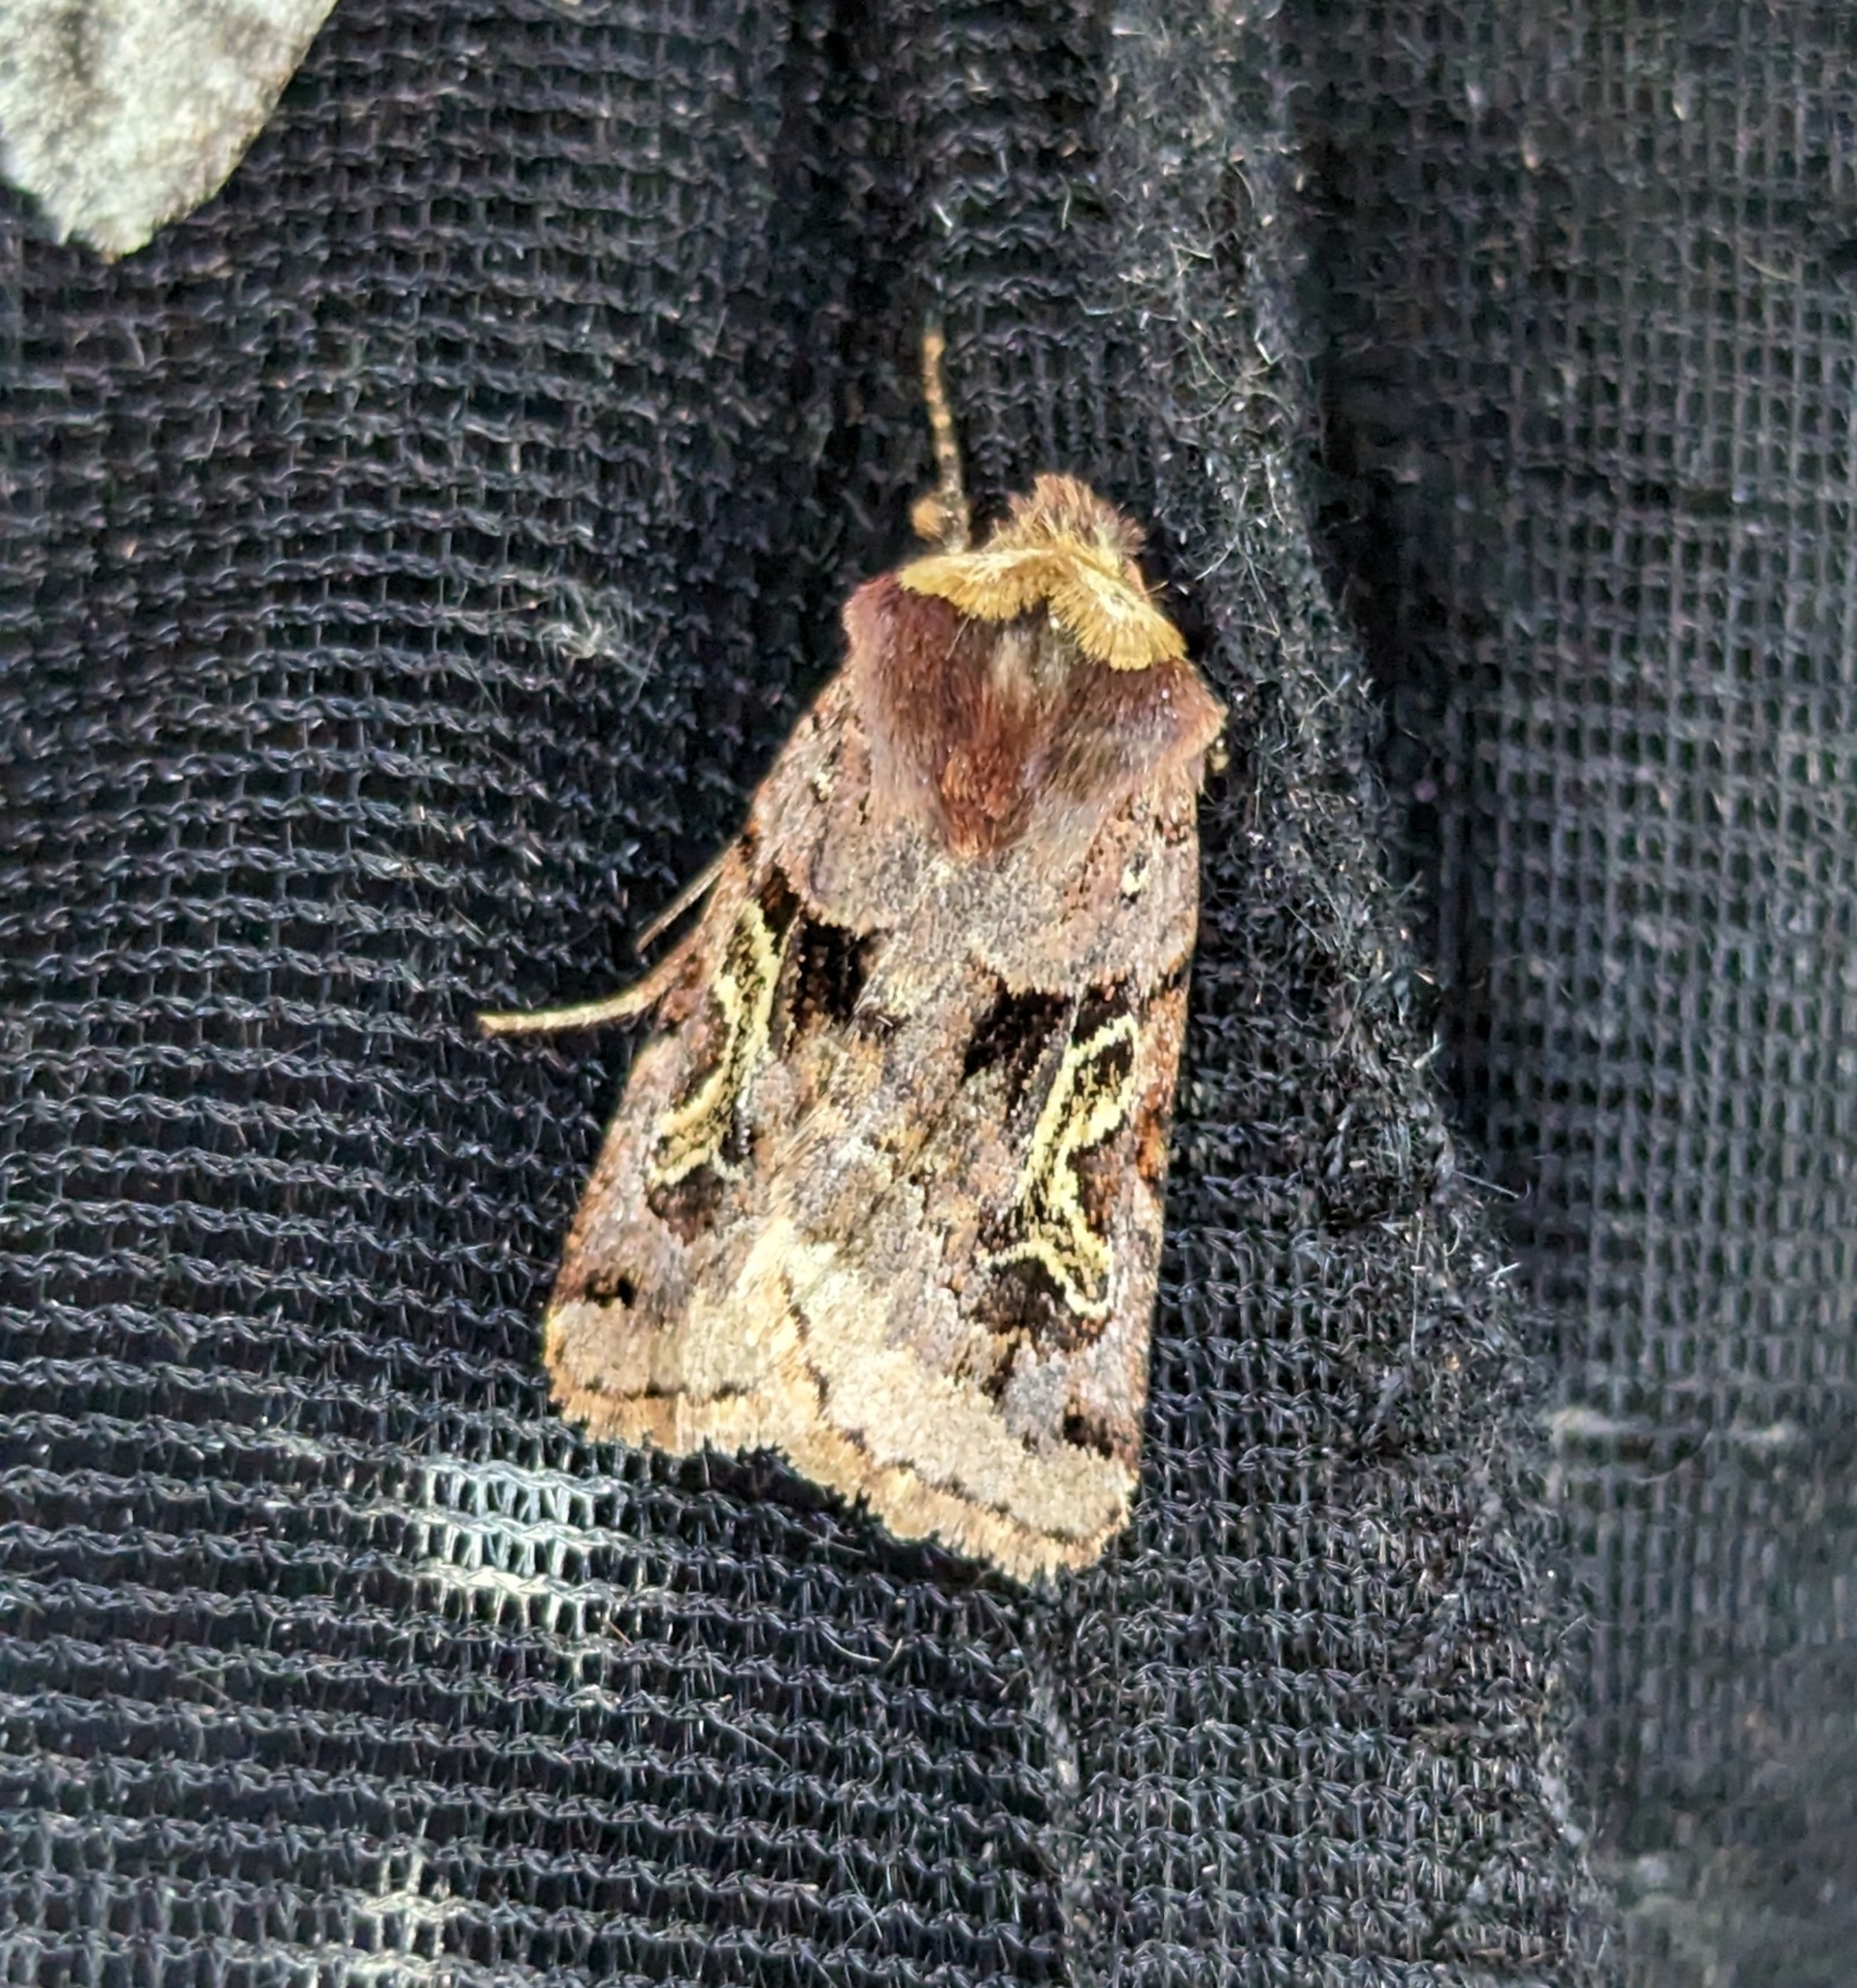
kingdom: Animalia
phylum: Arthropoda
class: Insecta
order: Lepidoptera
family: Noctuidae
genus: Cerastis
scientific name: Cerastis enigmatica
